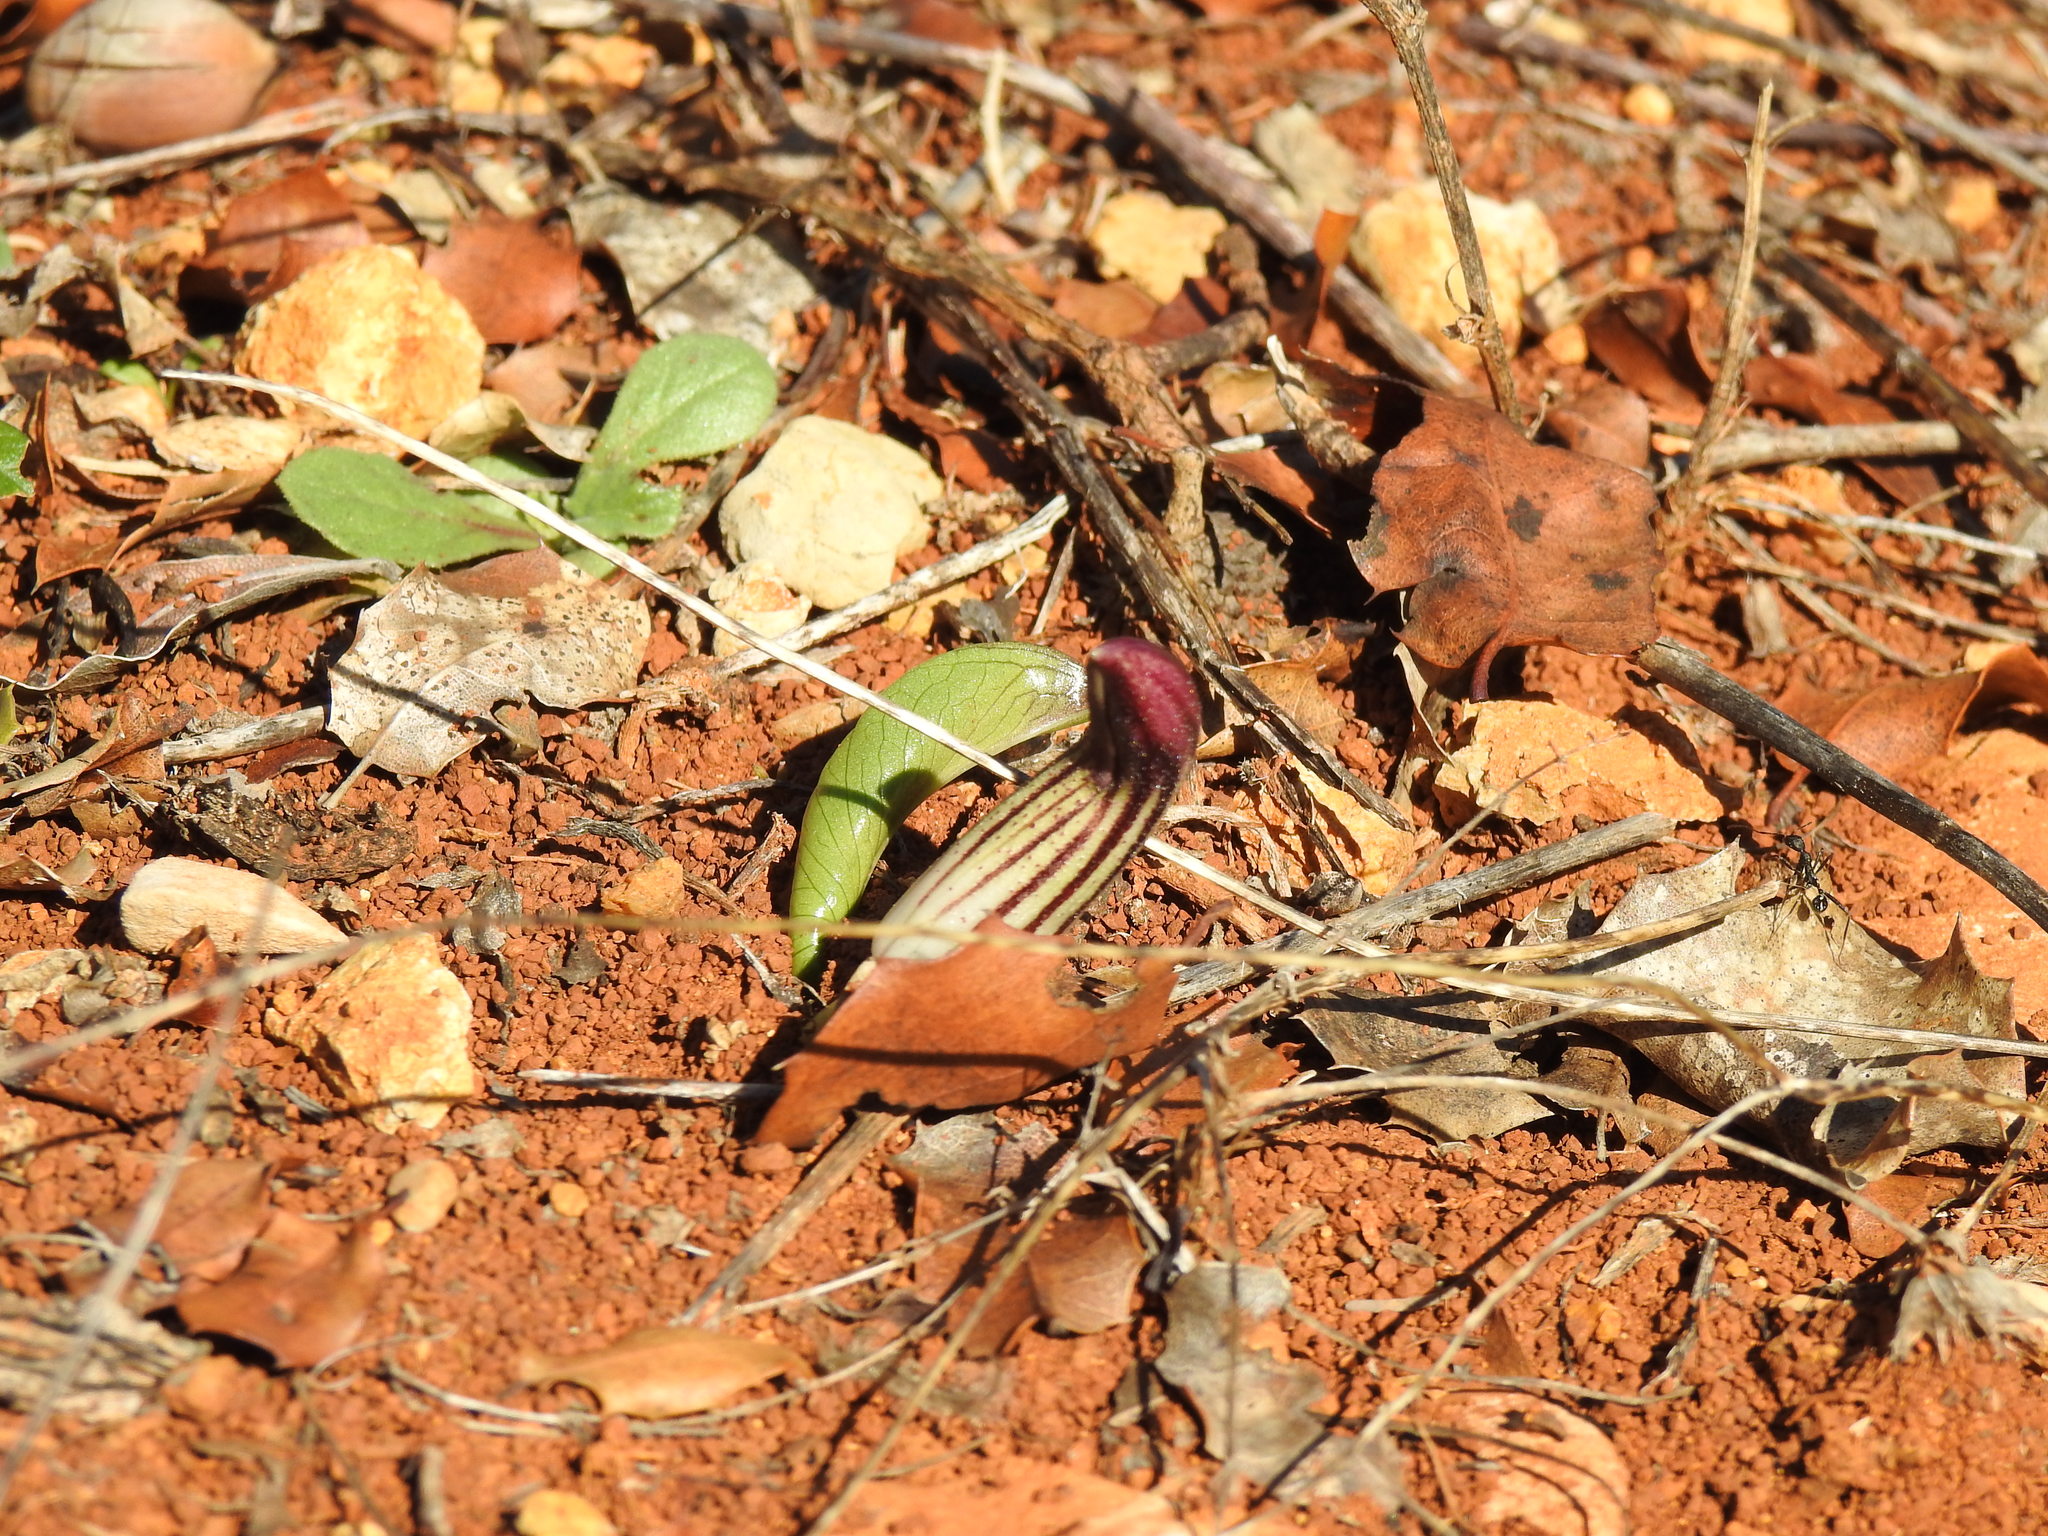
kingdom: Plantae
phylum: Tracheophyta
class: Liliopsida
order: Alismatales
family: Araceae
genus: Arisarum
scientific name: Arisarum simorrhinum
